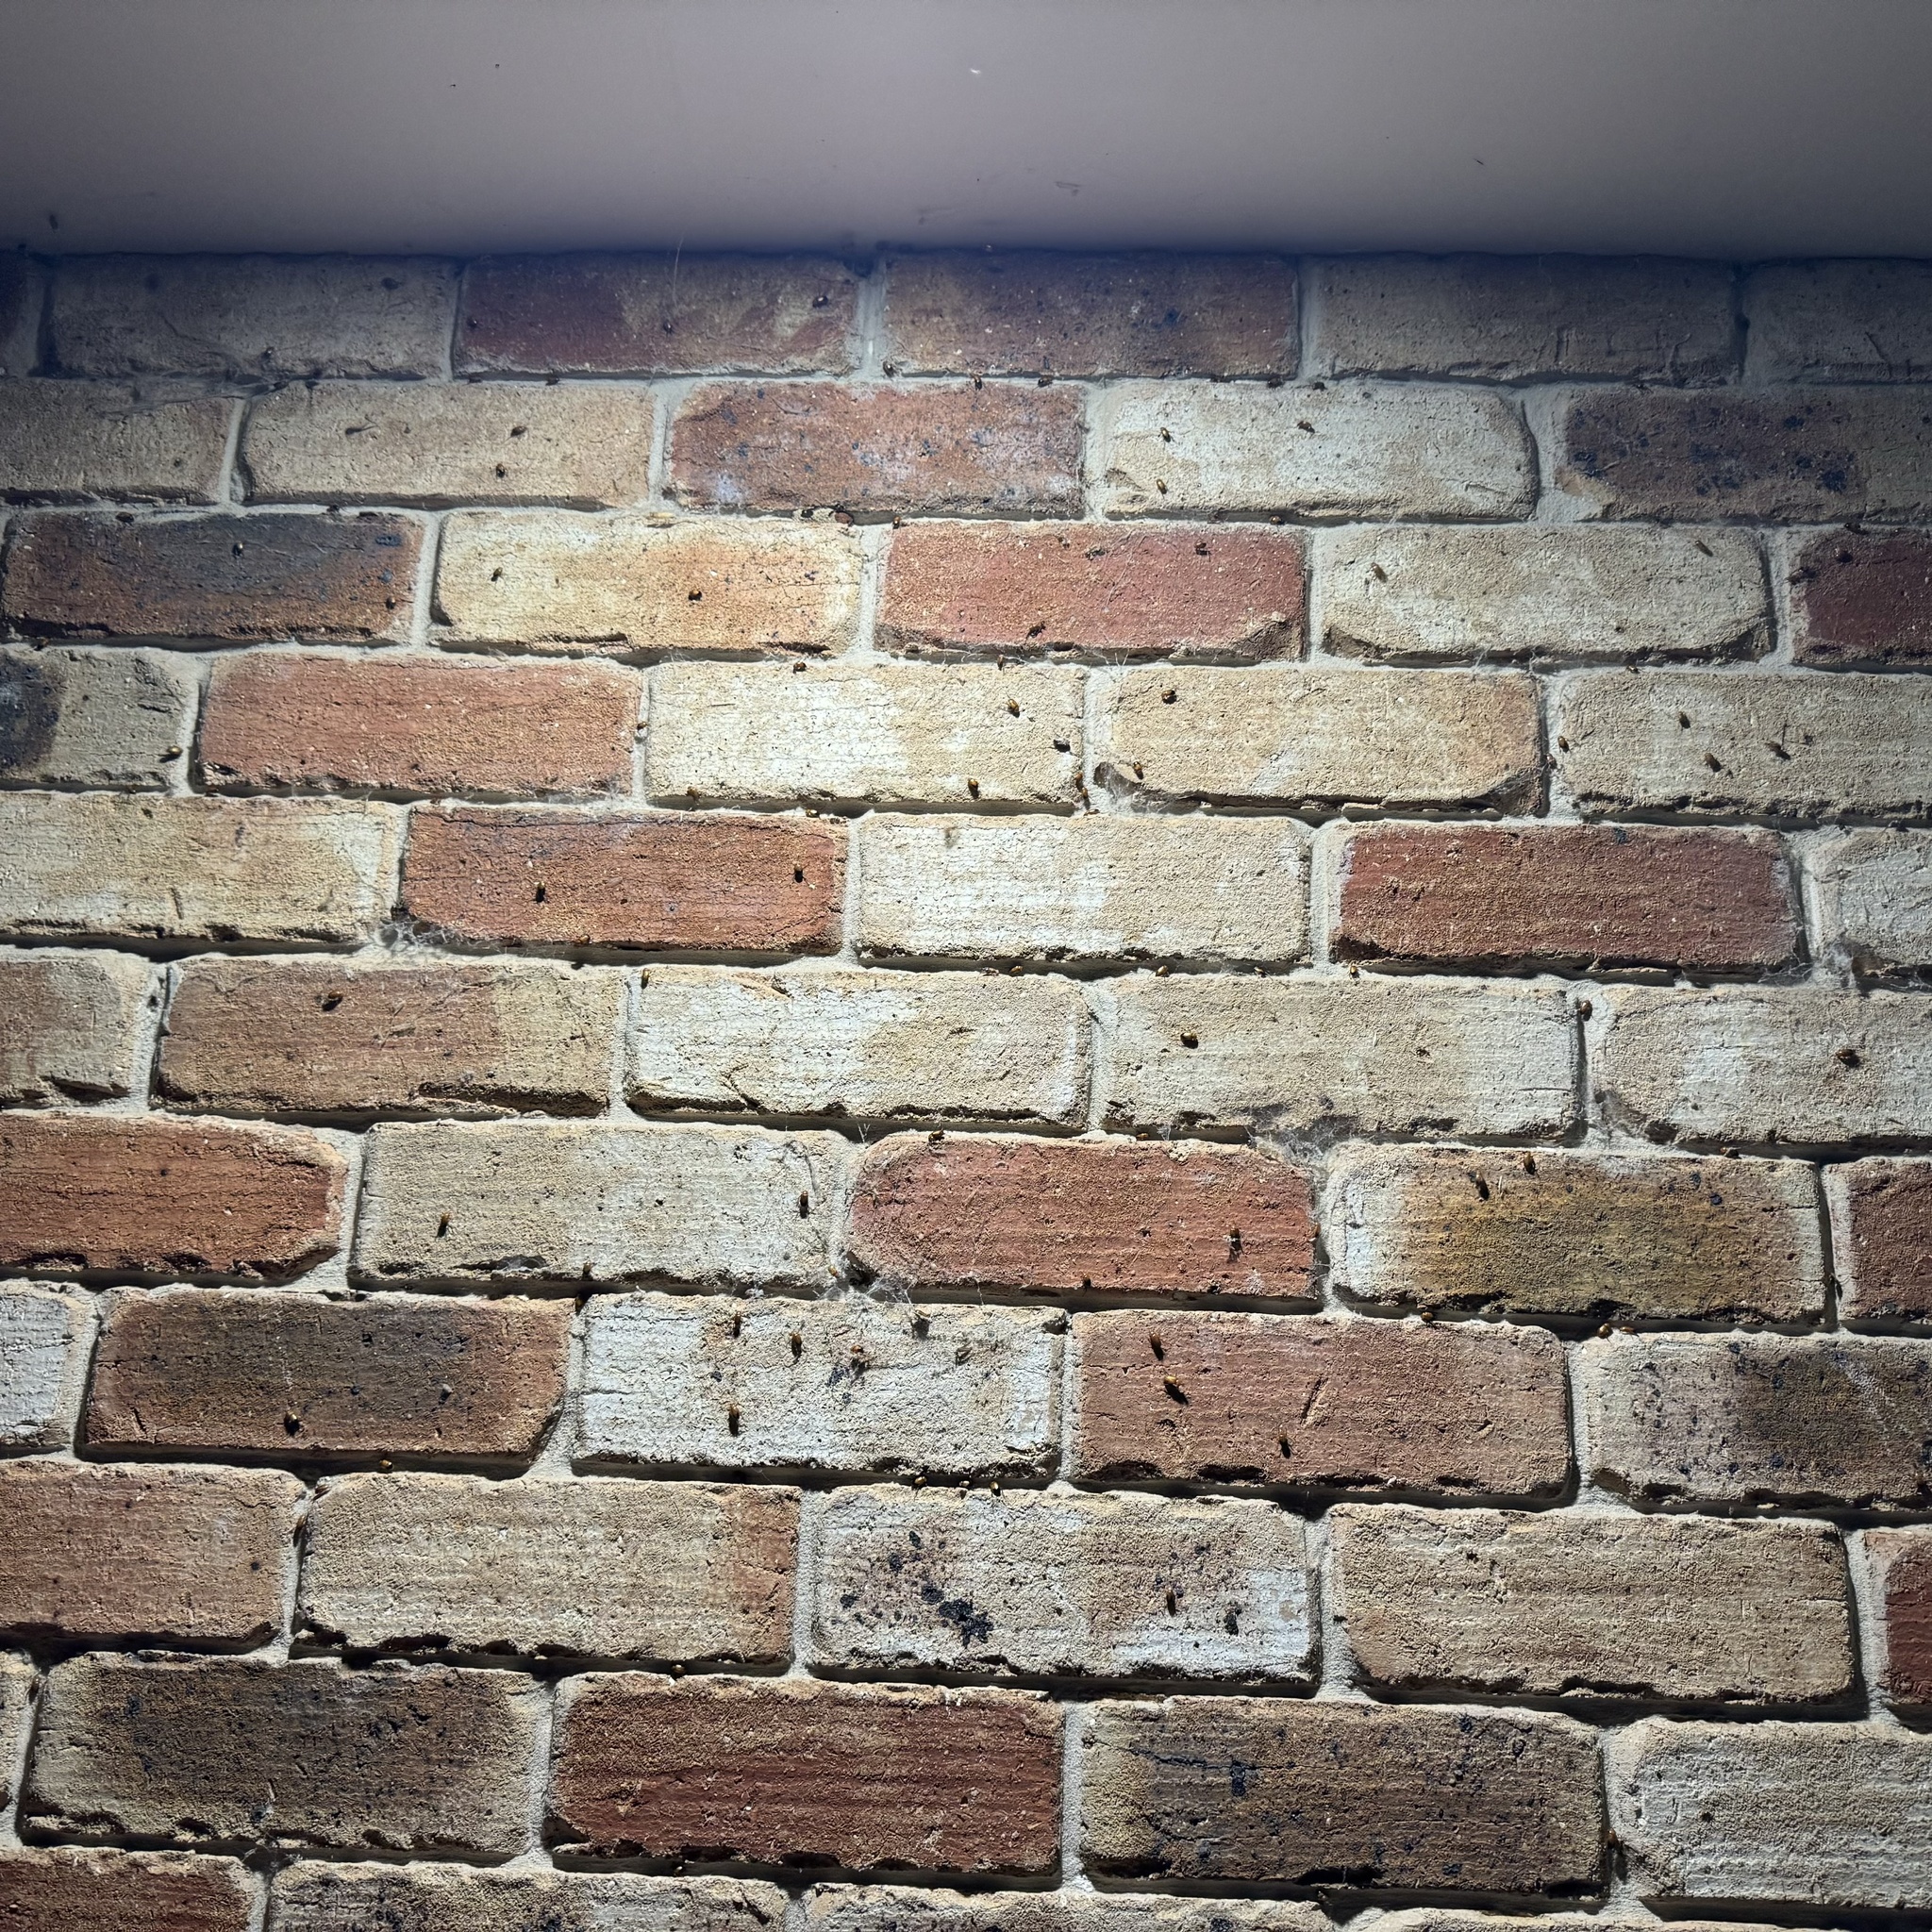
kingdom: Animalia
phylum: Arthropoda
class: Insecta
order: Coleoptera
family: Scarabaeidae
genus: Phyllotocus
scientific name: Phyllotocus macleayi
